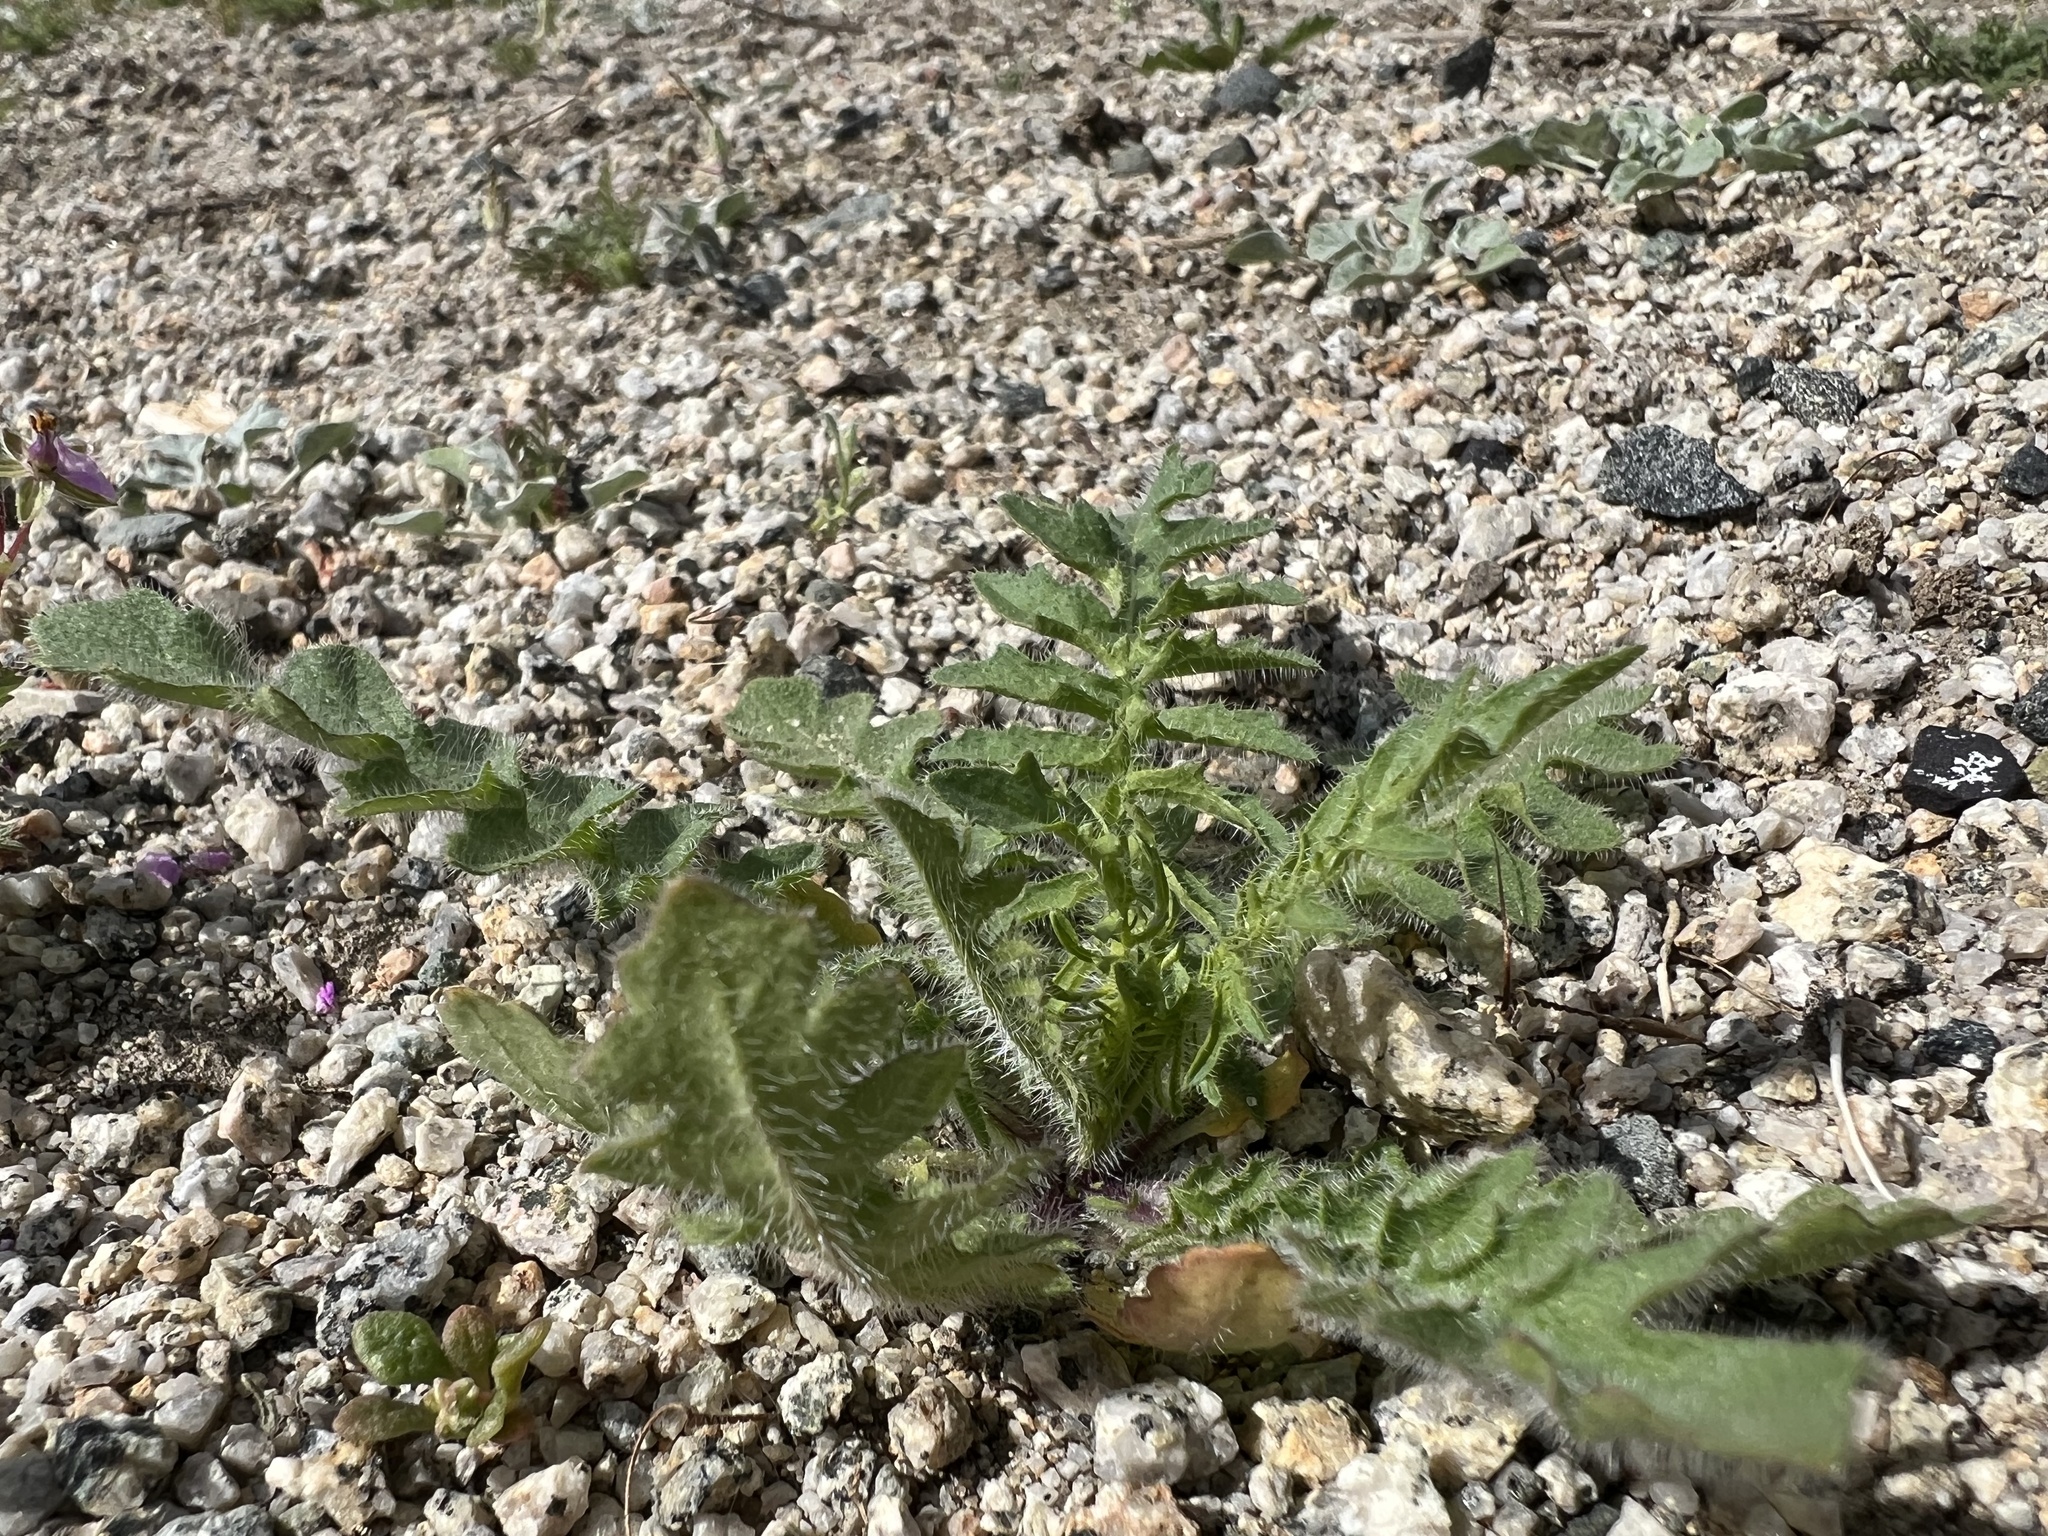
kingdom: Plantae
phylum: Tracheophyta
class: Magnoliopsida
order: Brassicales
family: Brassicaceae
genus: Sisymbrium
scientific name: Sisymbrium altissimum
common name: Tall rocket
